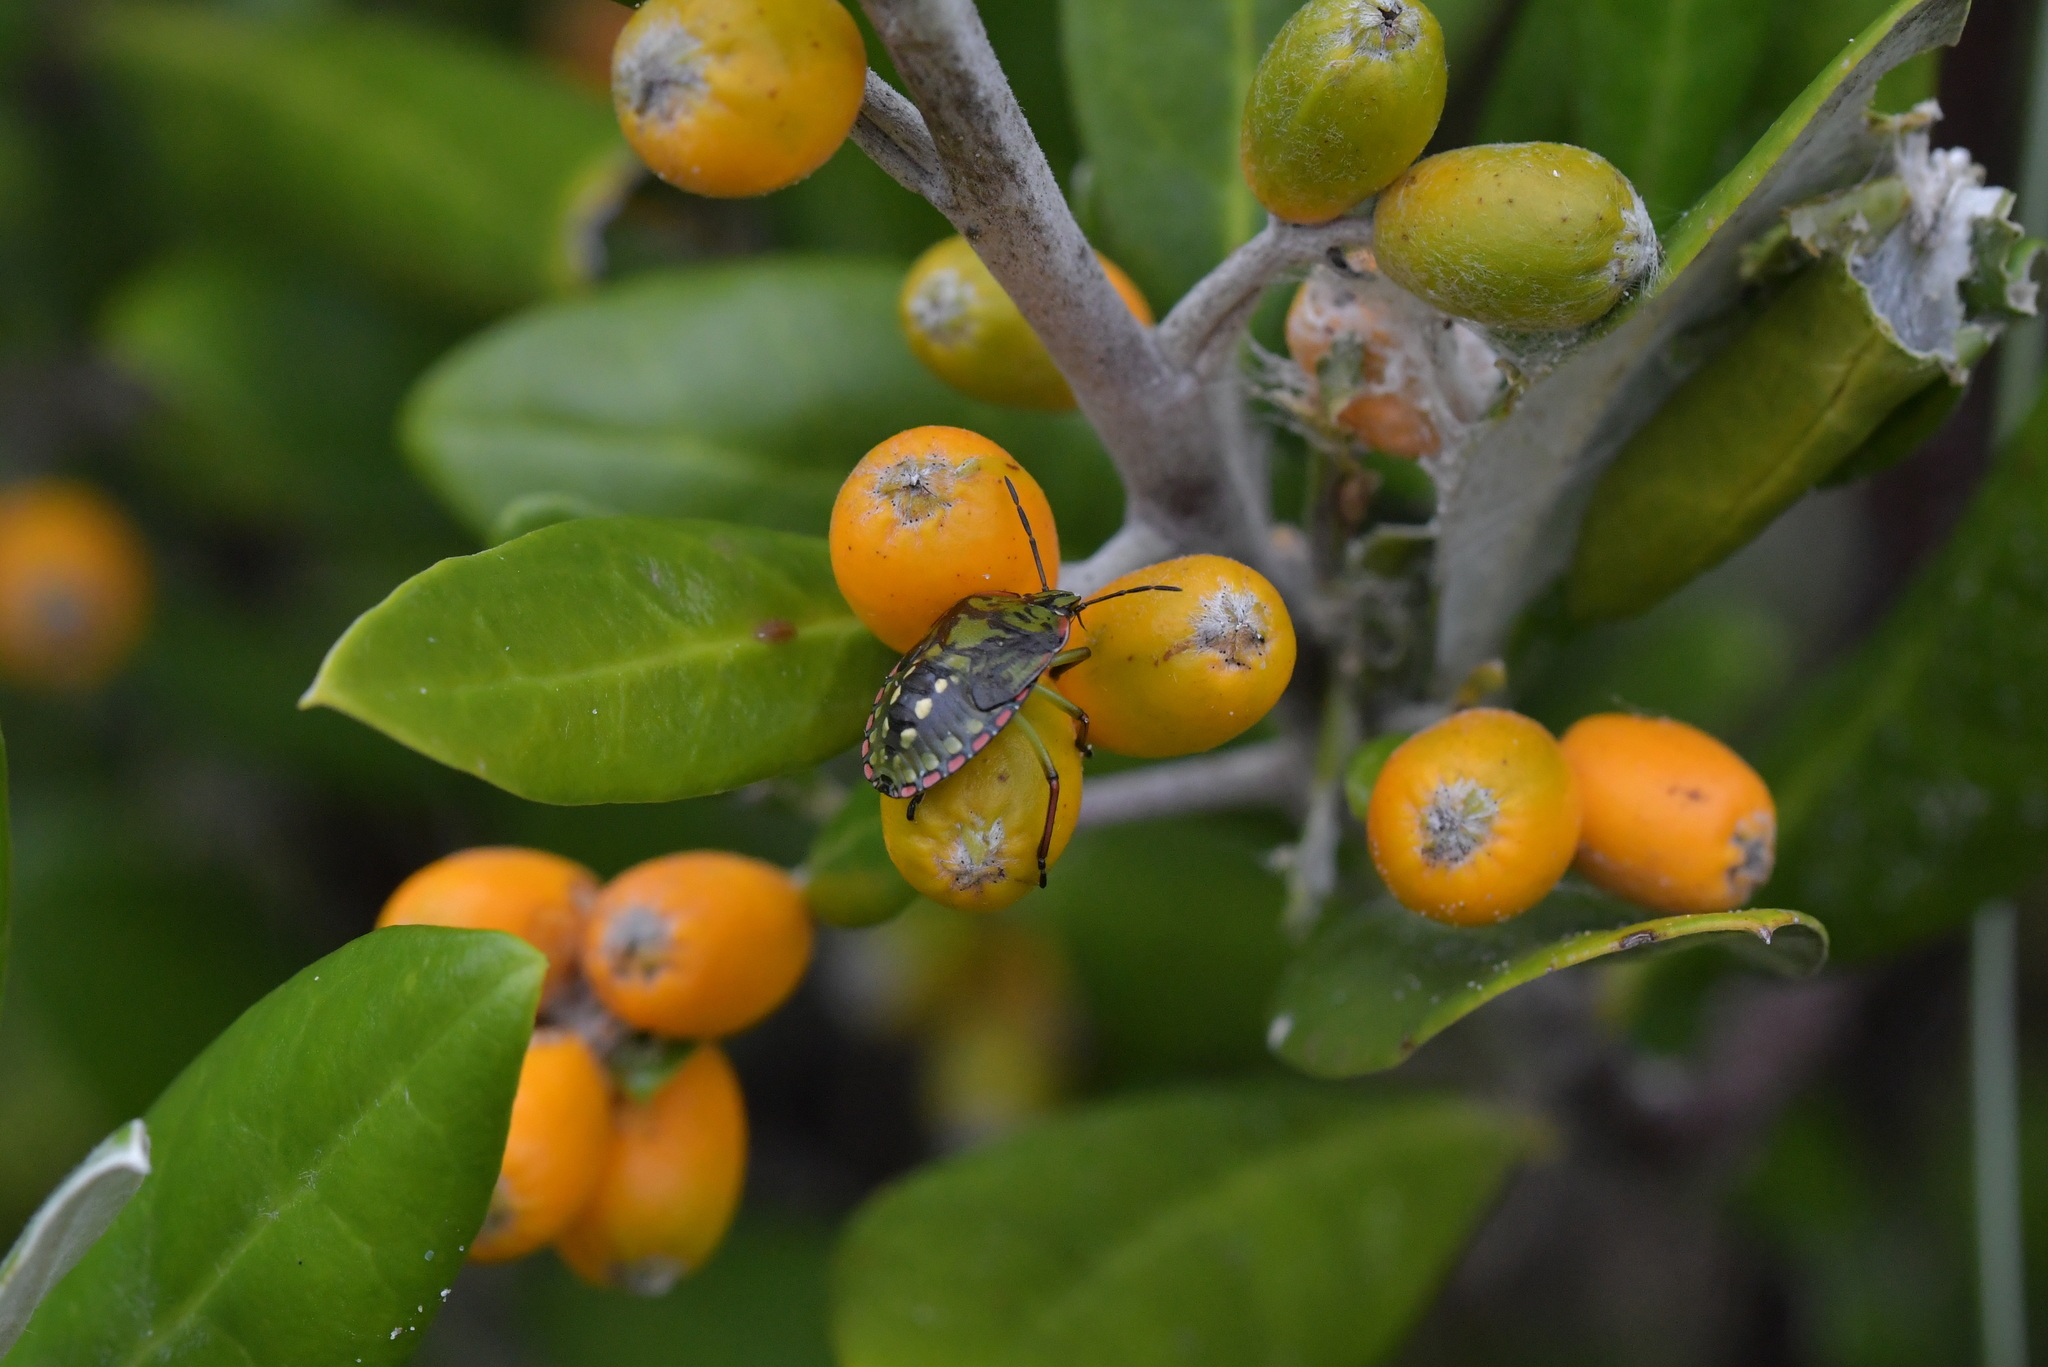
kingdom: Animalia
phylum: Arthropoda
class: Insecta
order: Hemiptera
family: Pentatomidae
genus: Nezara
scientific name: Nezara viridula
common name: Southern green stink bug
